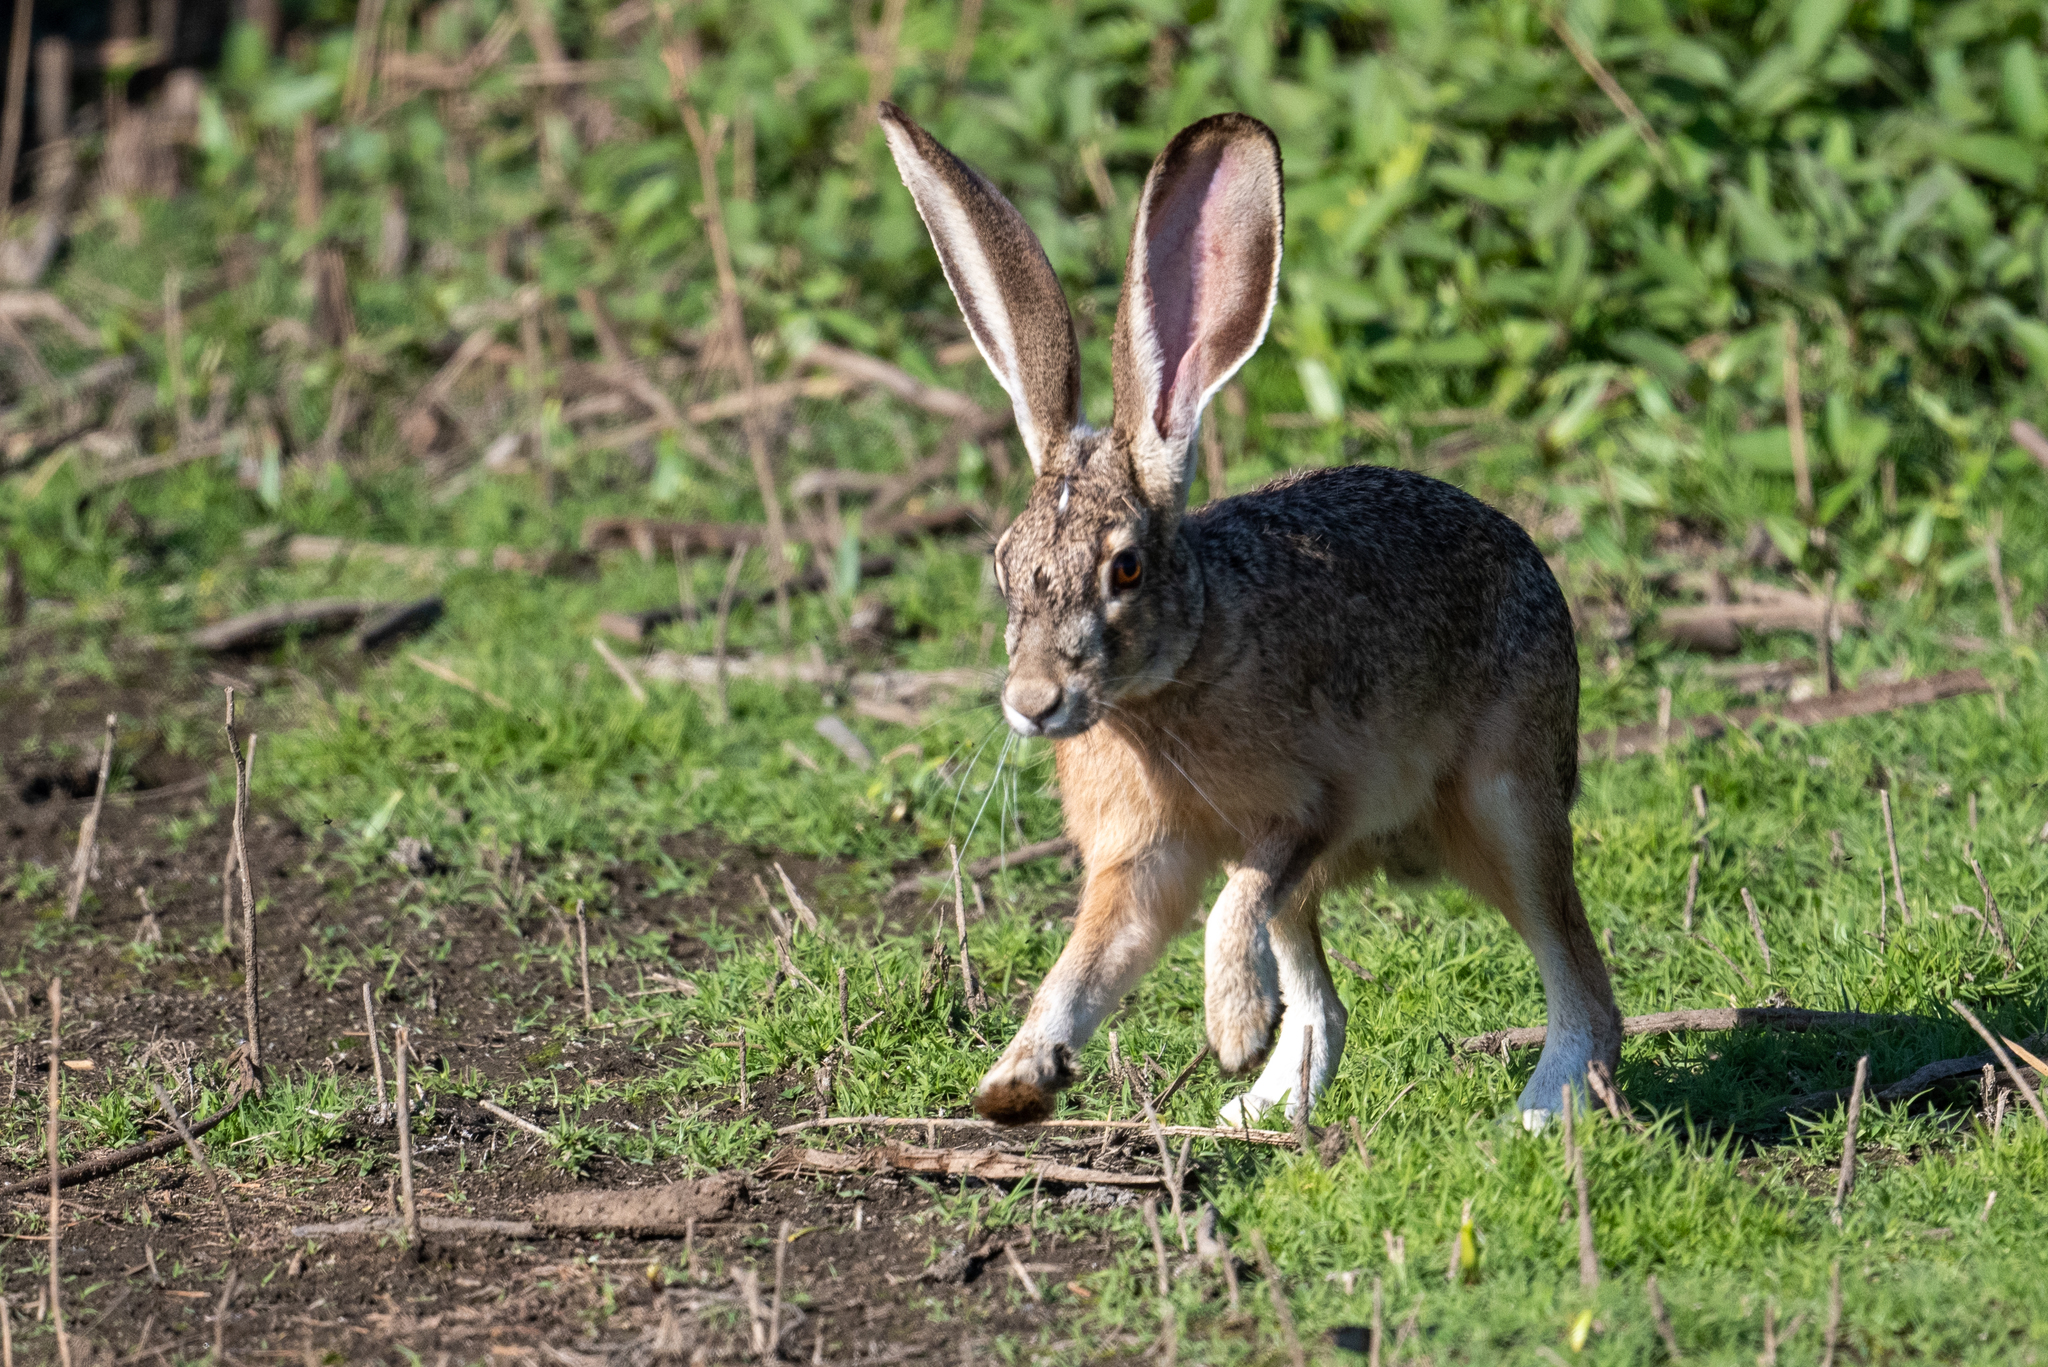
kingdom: Animalia
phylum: Chordata
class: Mammalia
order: Lagomorpha
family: Leporidae
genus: Lepus
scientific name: Lepus californicus
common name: Black-tailed jackrabbit
